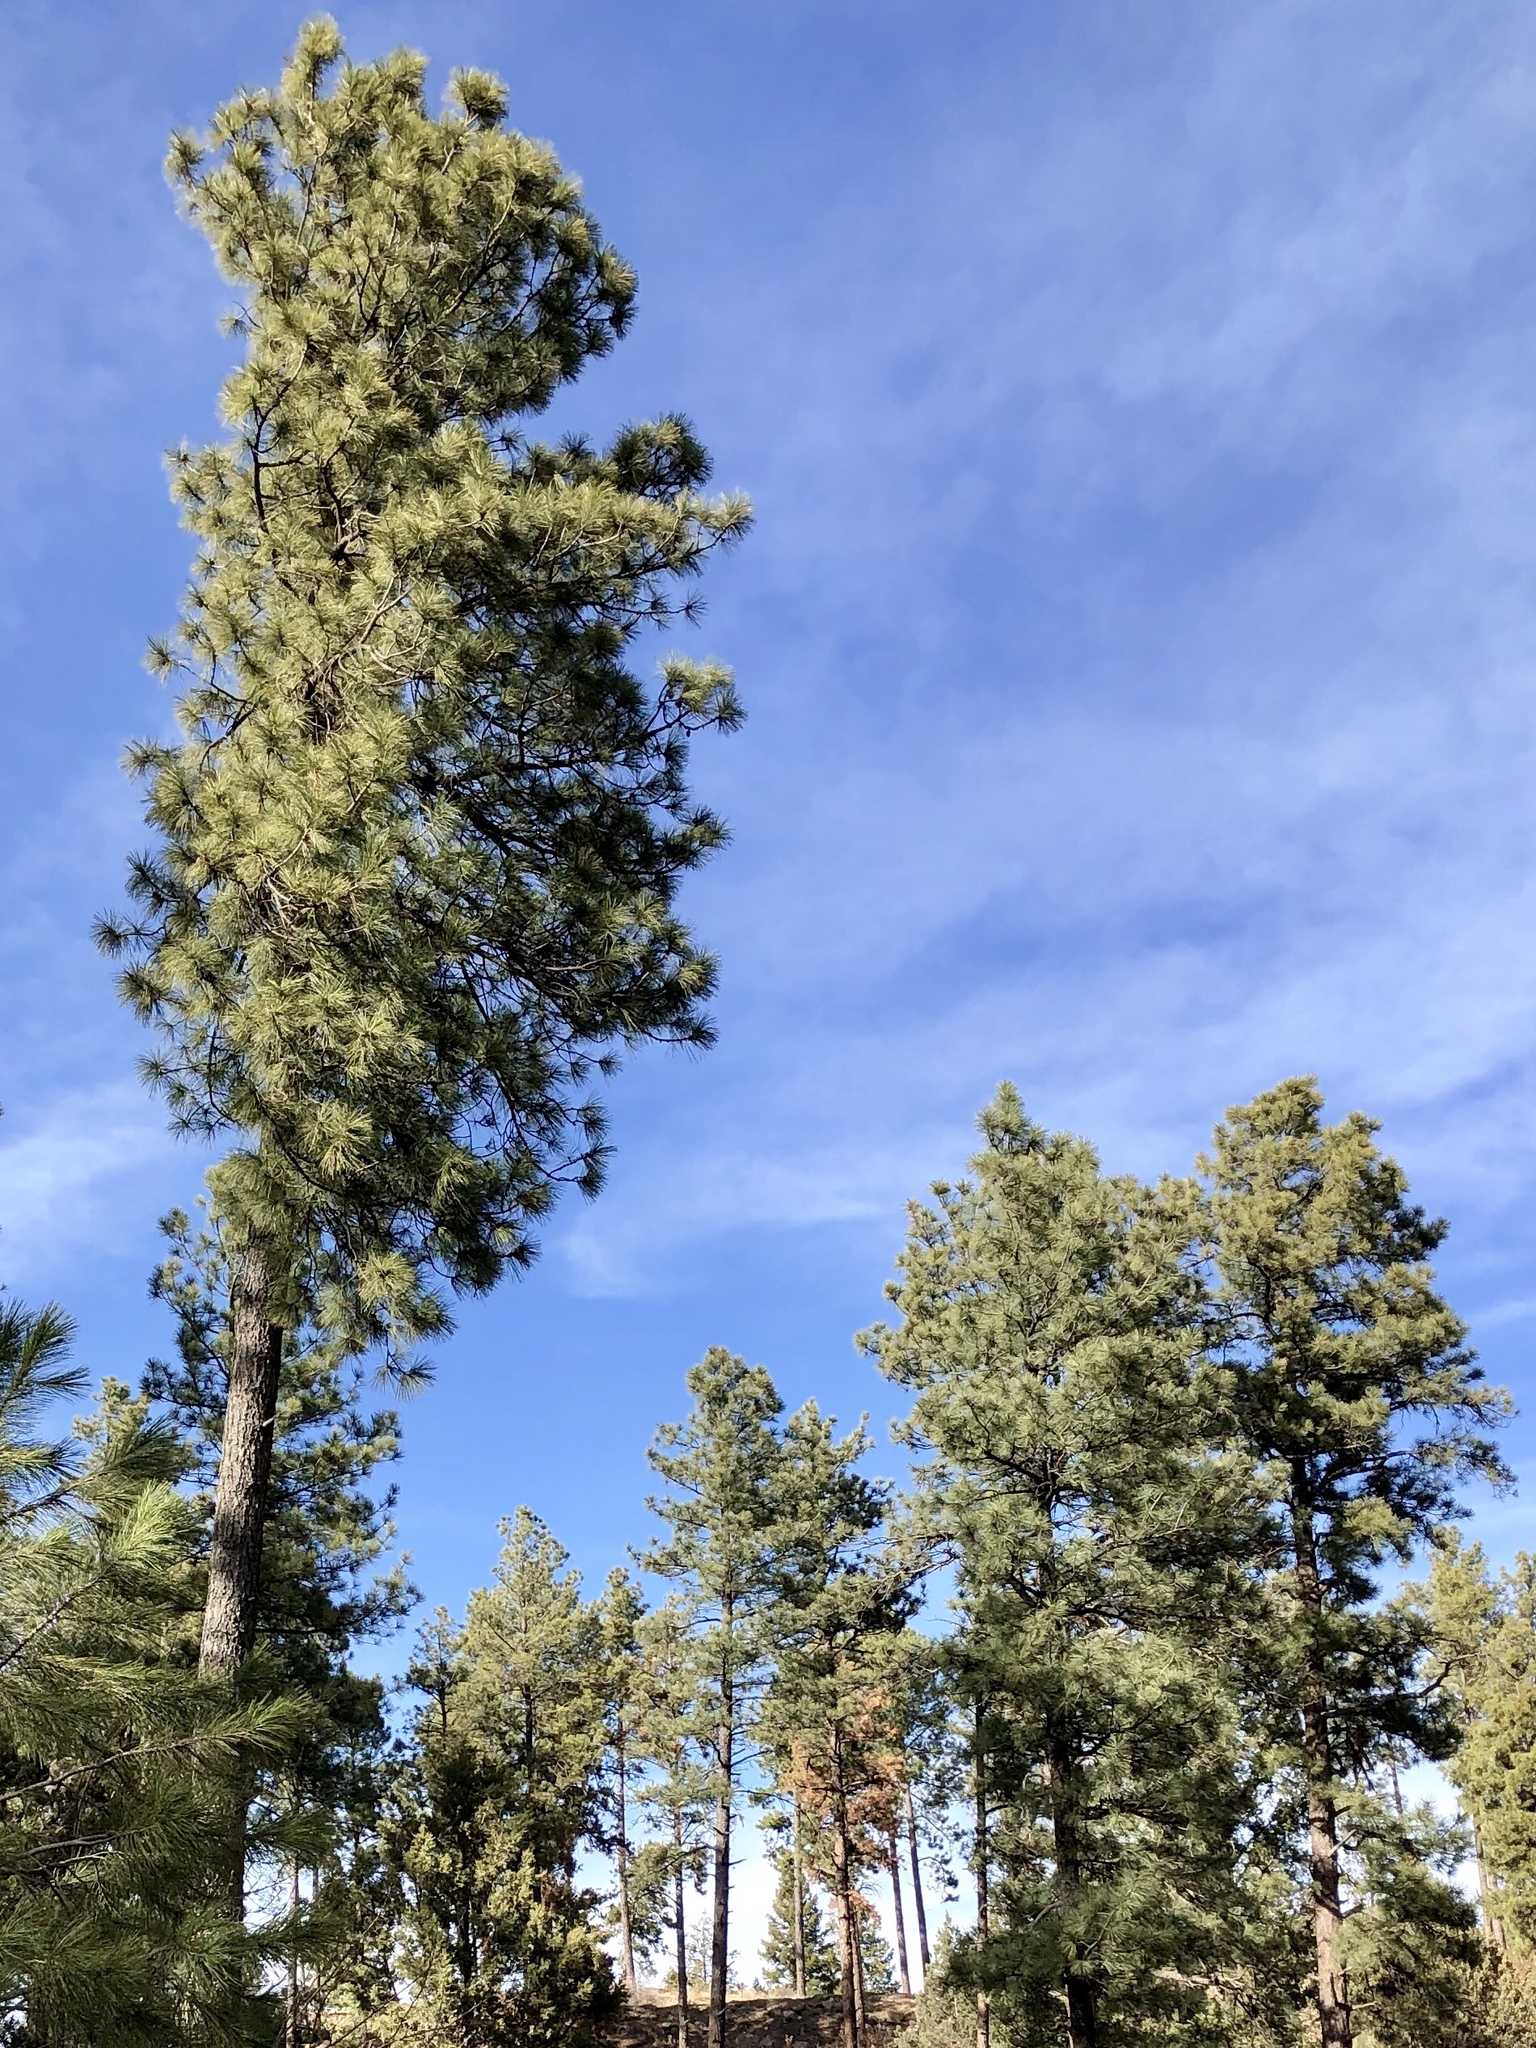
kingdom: Plantae
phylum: Tracheophyta
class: Pinopsida
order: Pinales
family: Pinaceae
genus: Pinus
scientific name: Pinus ponderosa
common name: Western yellow-pine
